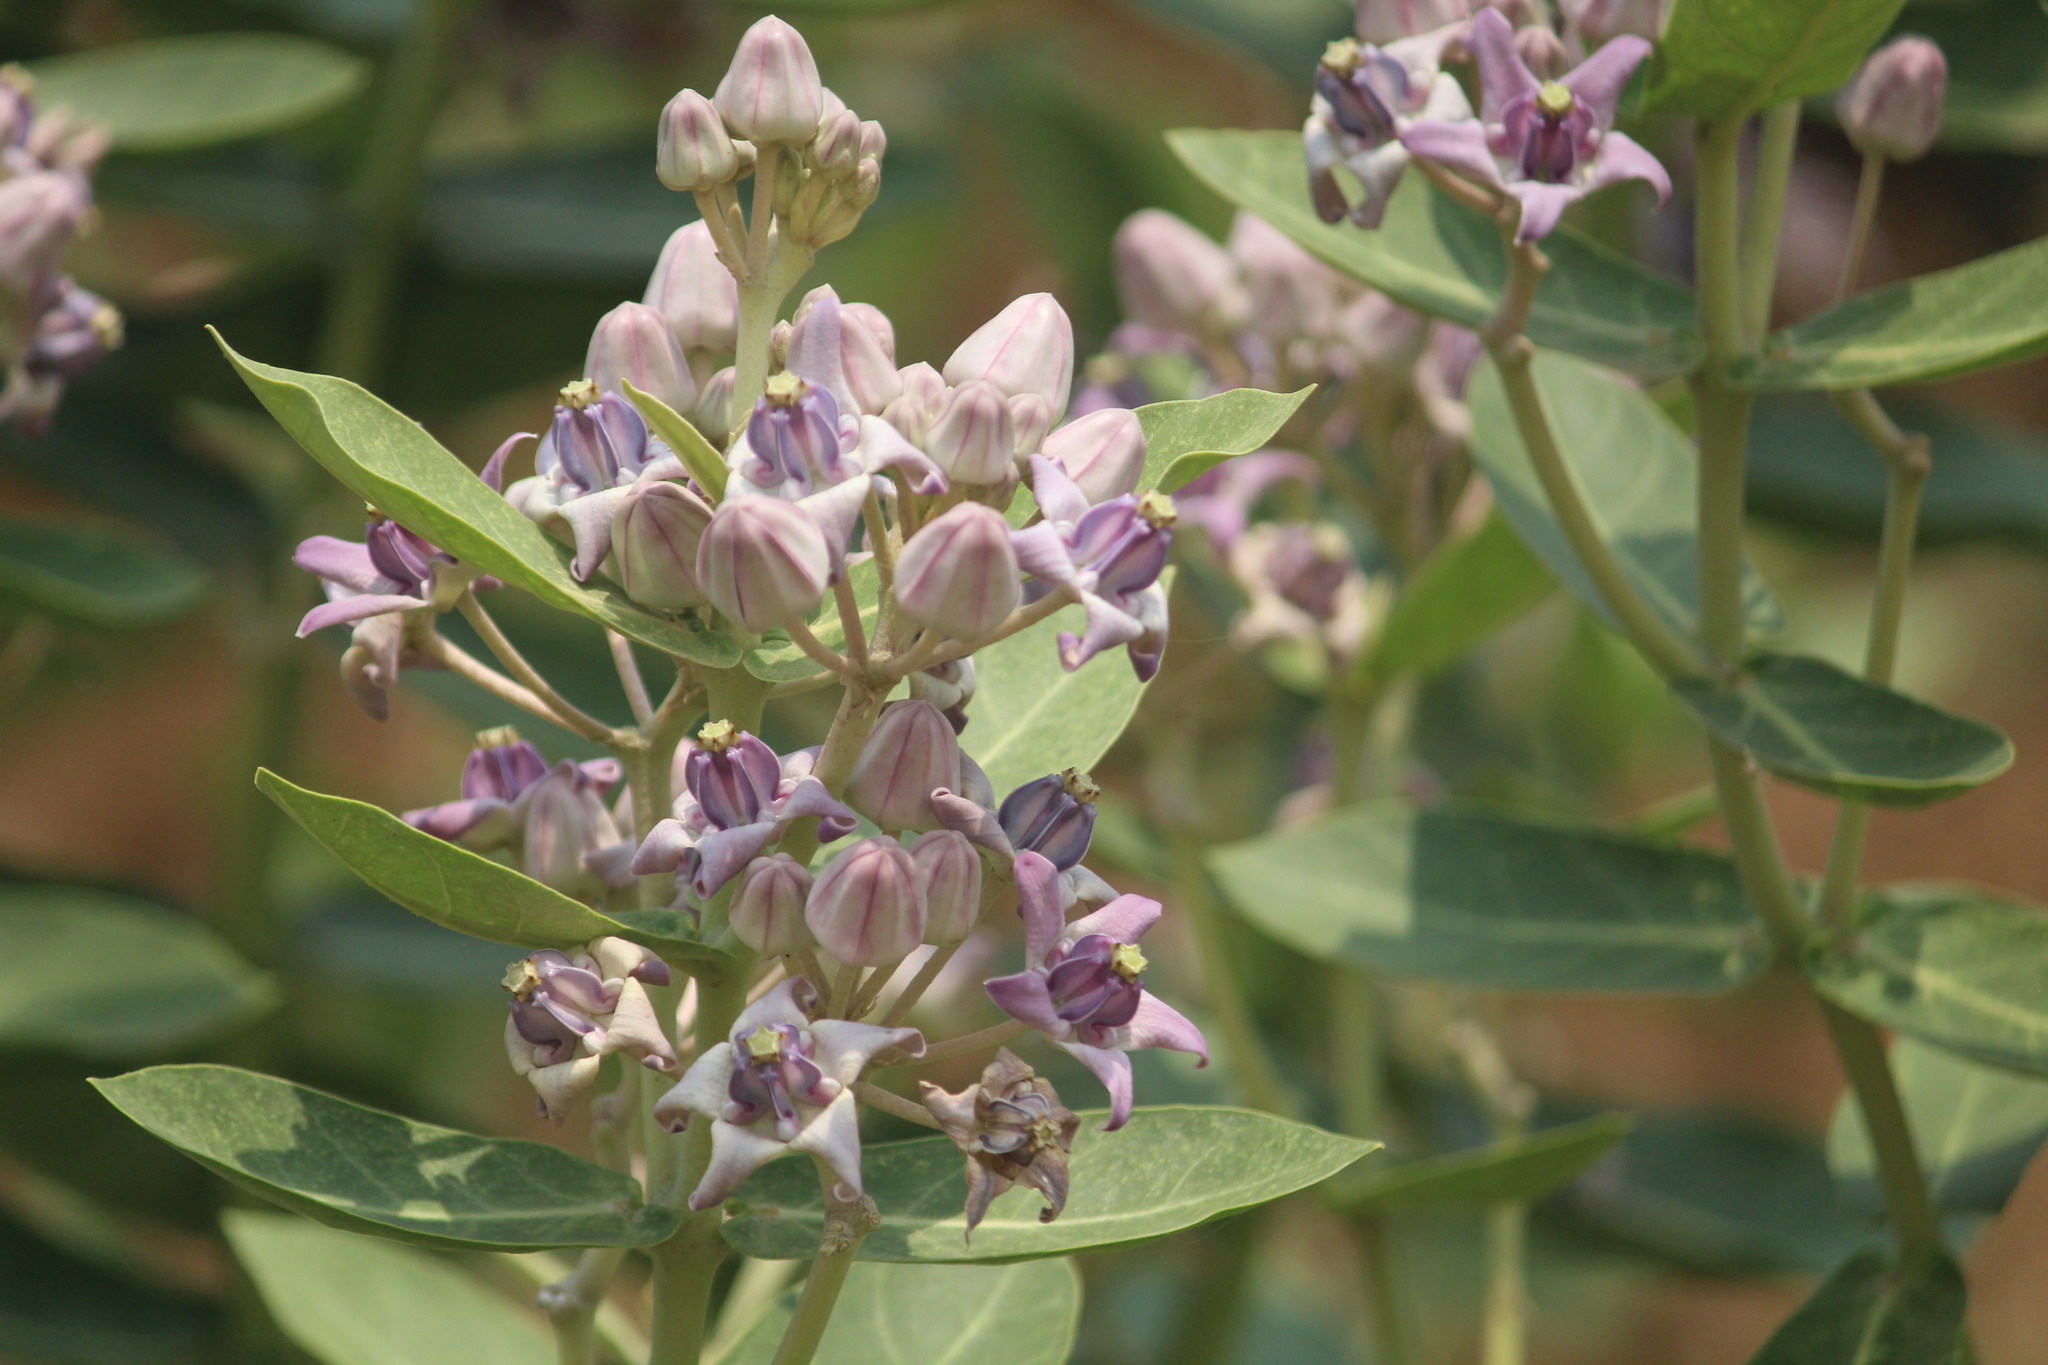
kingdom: Plantae
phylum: Tracheophyta
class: Magnoliopsida
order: Gentianales
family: Apocynaceae
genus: Calotropis
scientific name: Calotropis gigantea
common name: Crown flower
